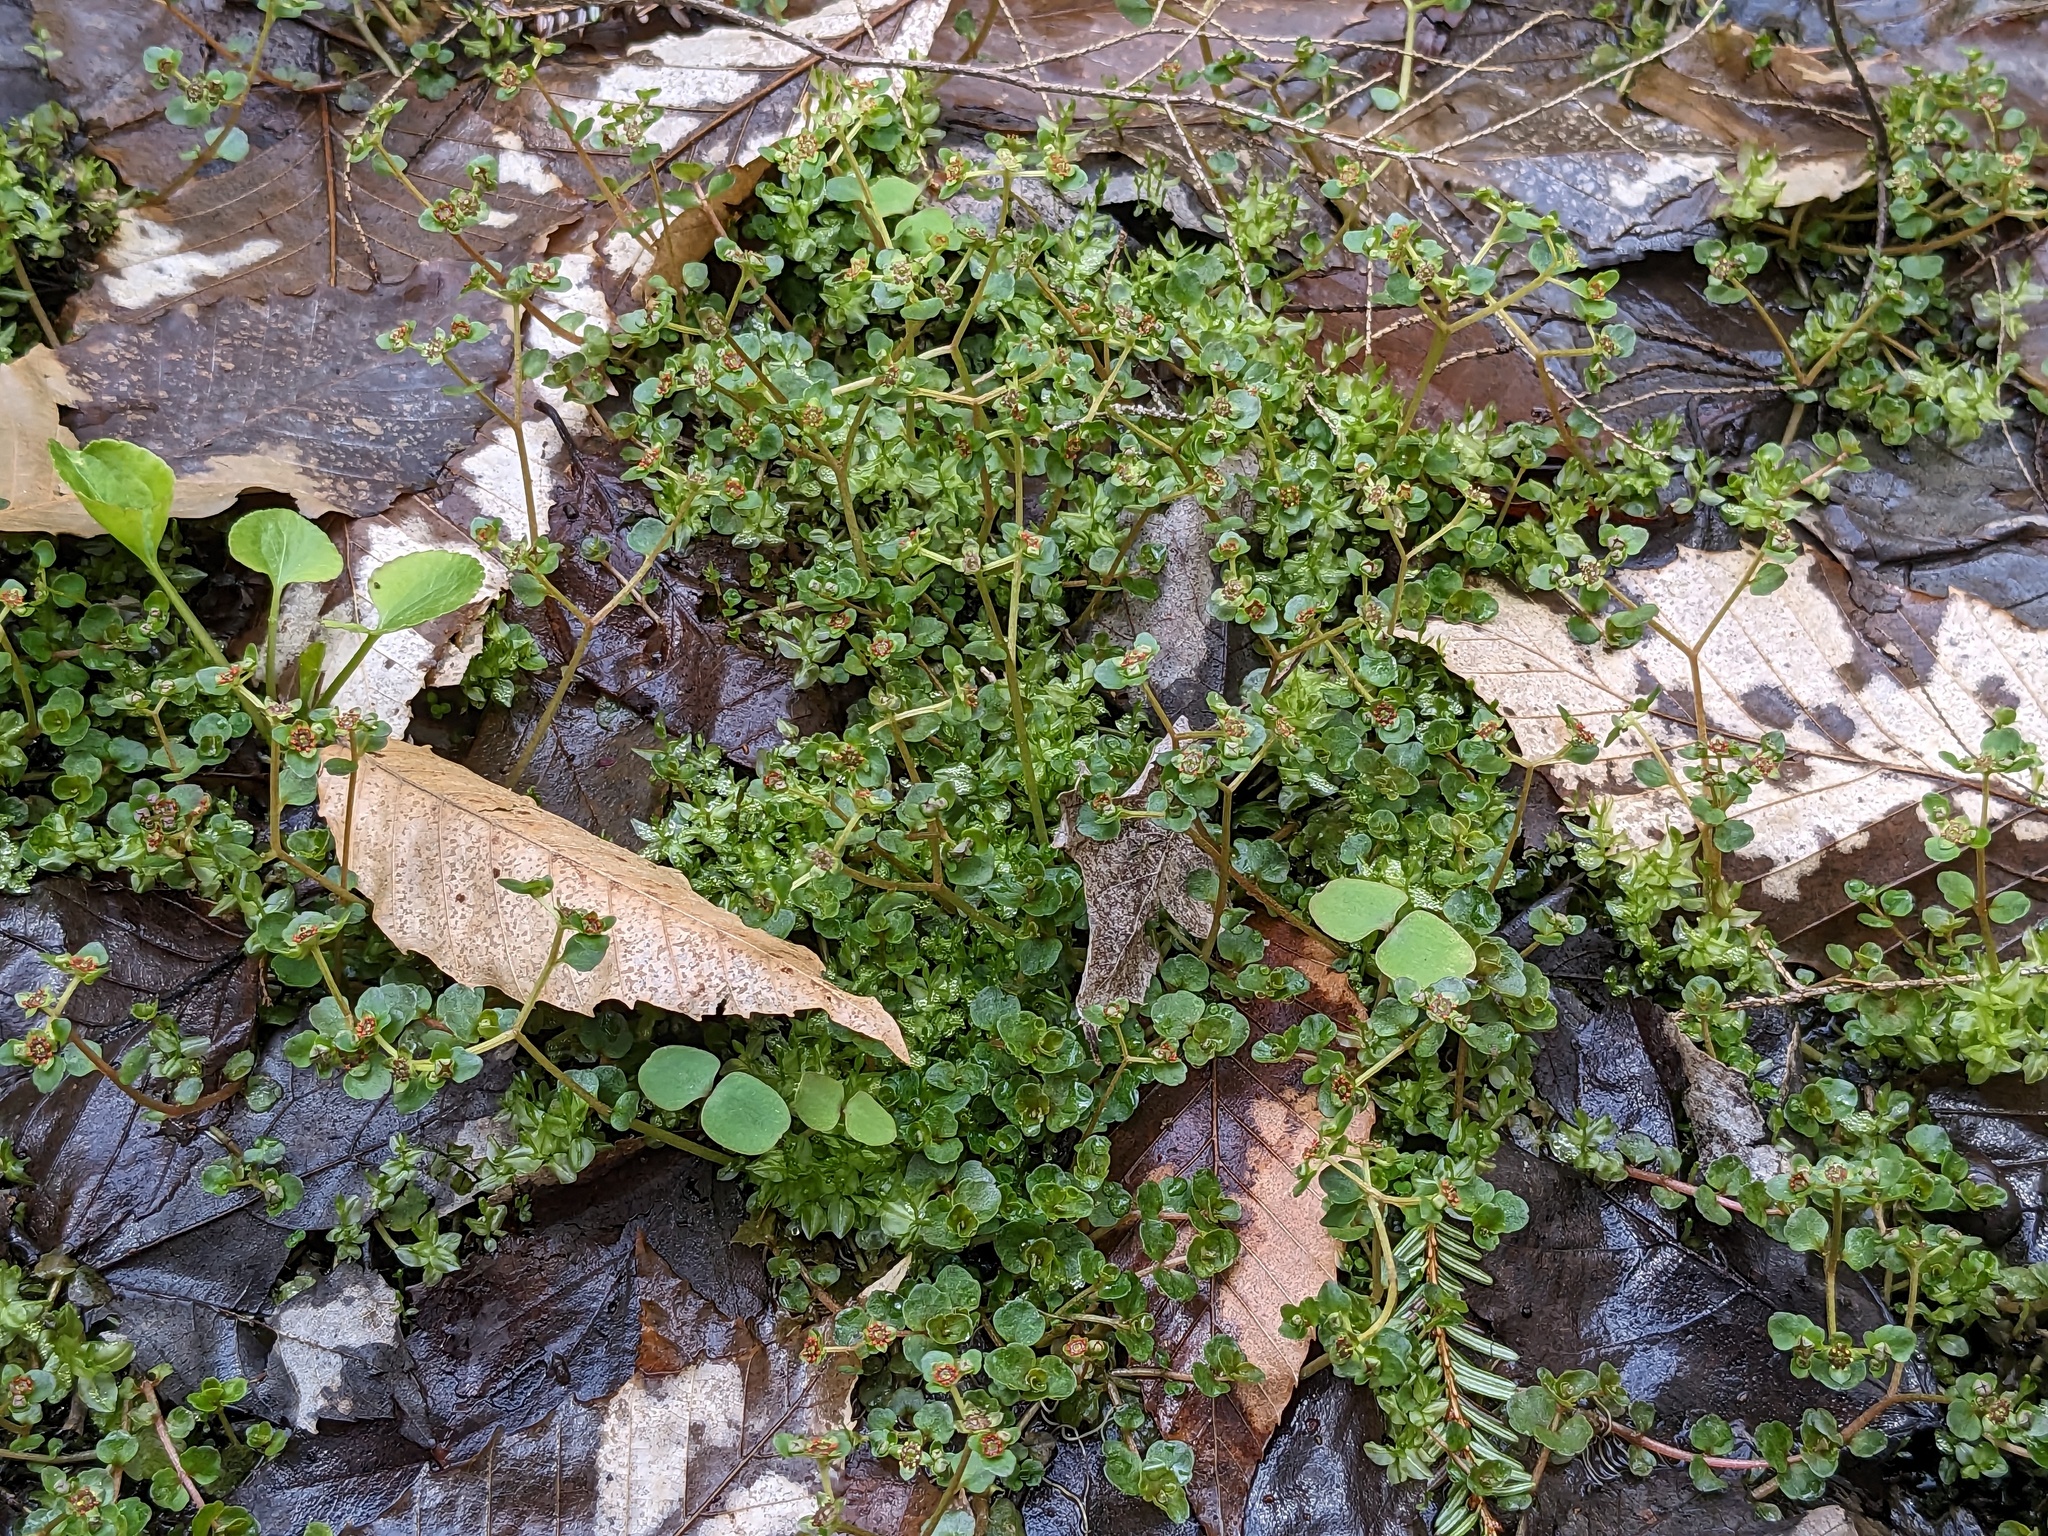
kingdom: Plantae
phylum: Tracheophyta
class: Magnoliopsida
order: Saxifragales
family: Saxifragaceae
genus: Chrysosplenium
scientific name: Chrysosplenium americanum
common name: American golden-saxifrage
